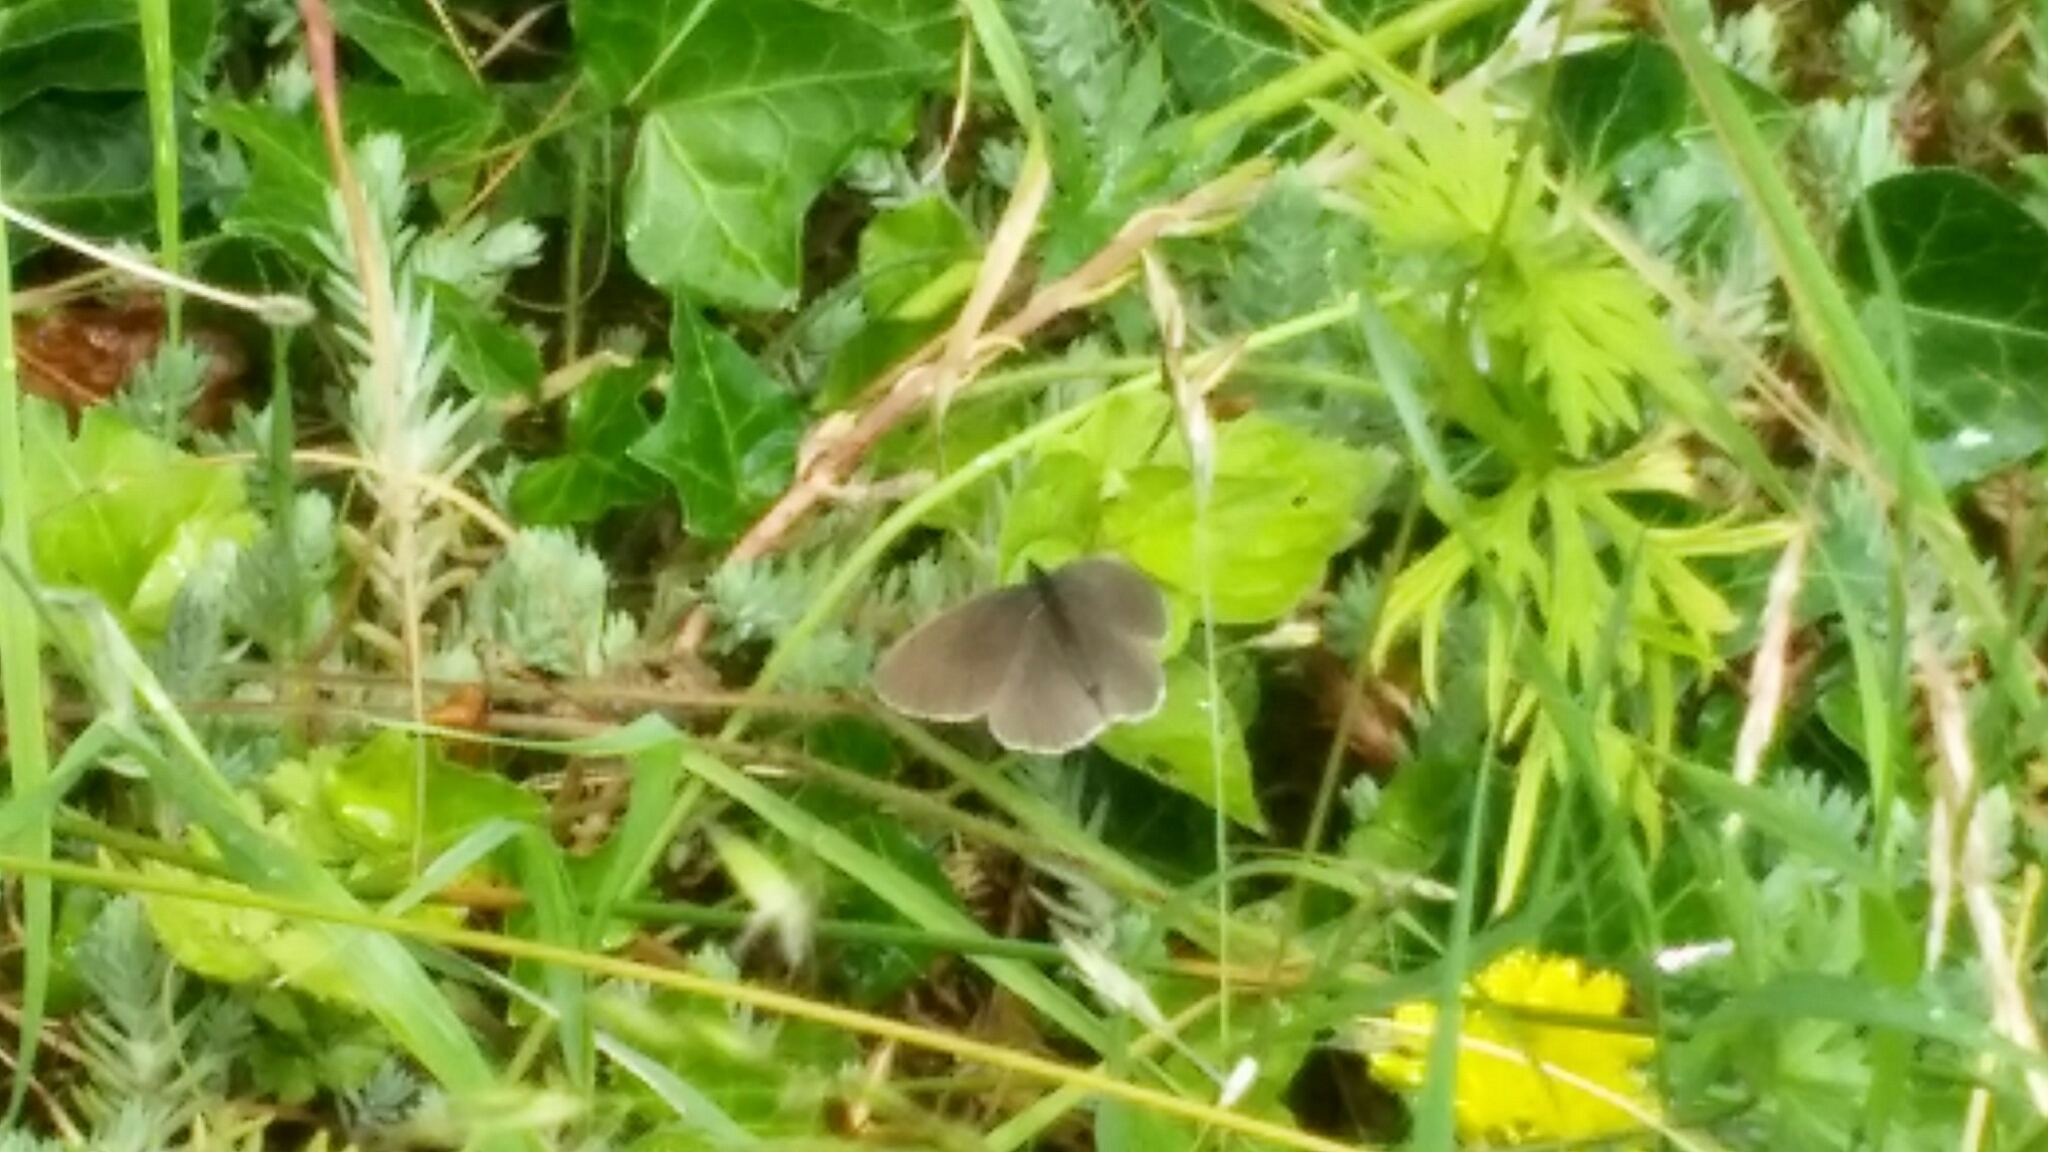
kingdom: Animalia
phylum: Arthropoda
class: Insecta
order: Lepidoptera
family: Nymphalidae
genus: Aphantopus
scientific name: Aphantopus hyperantus
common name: Ringlet
